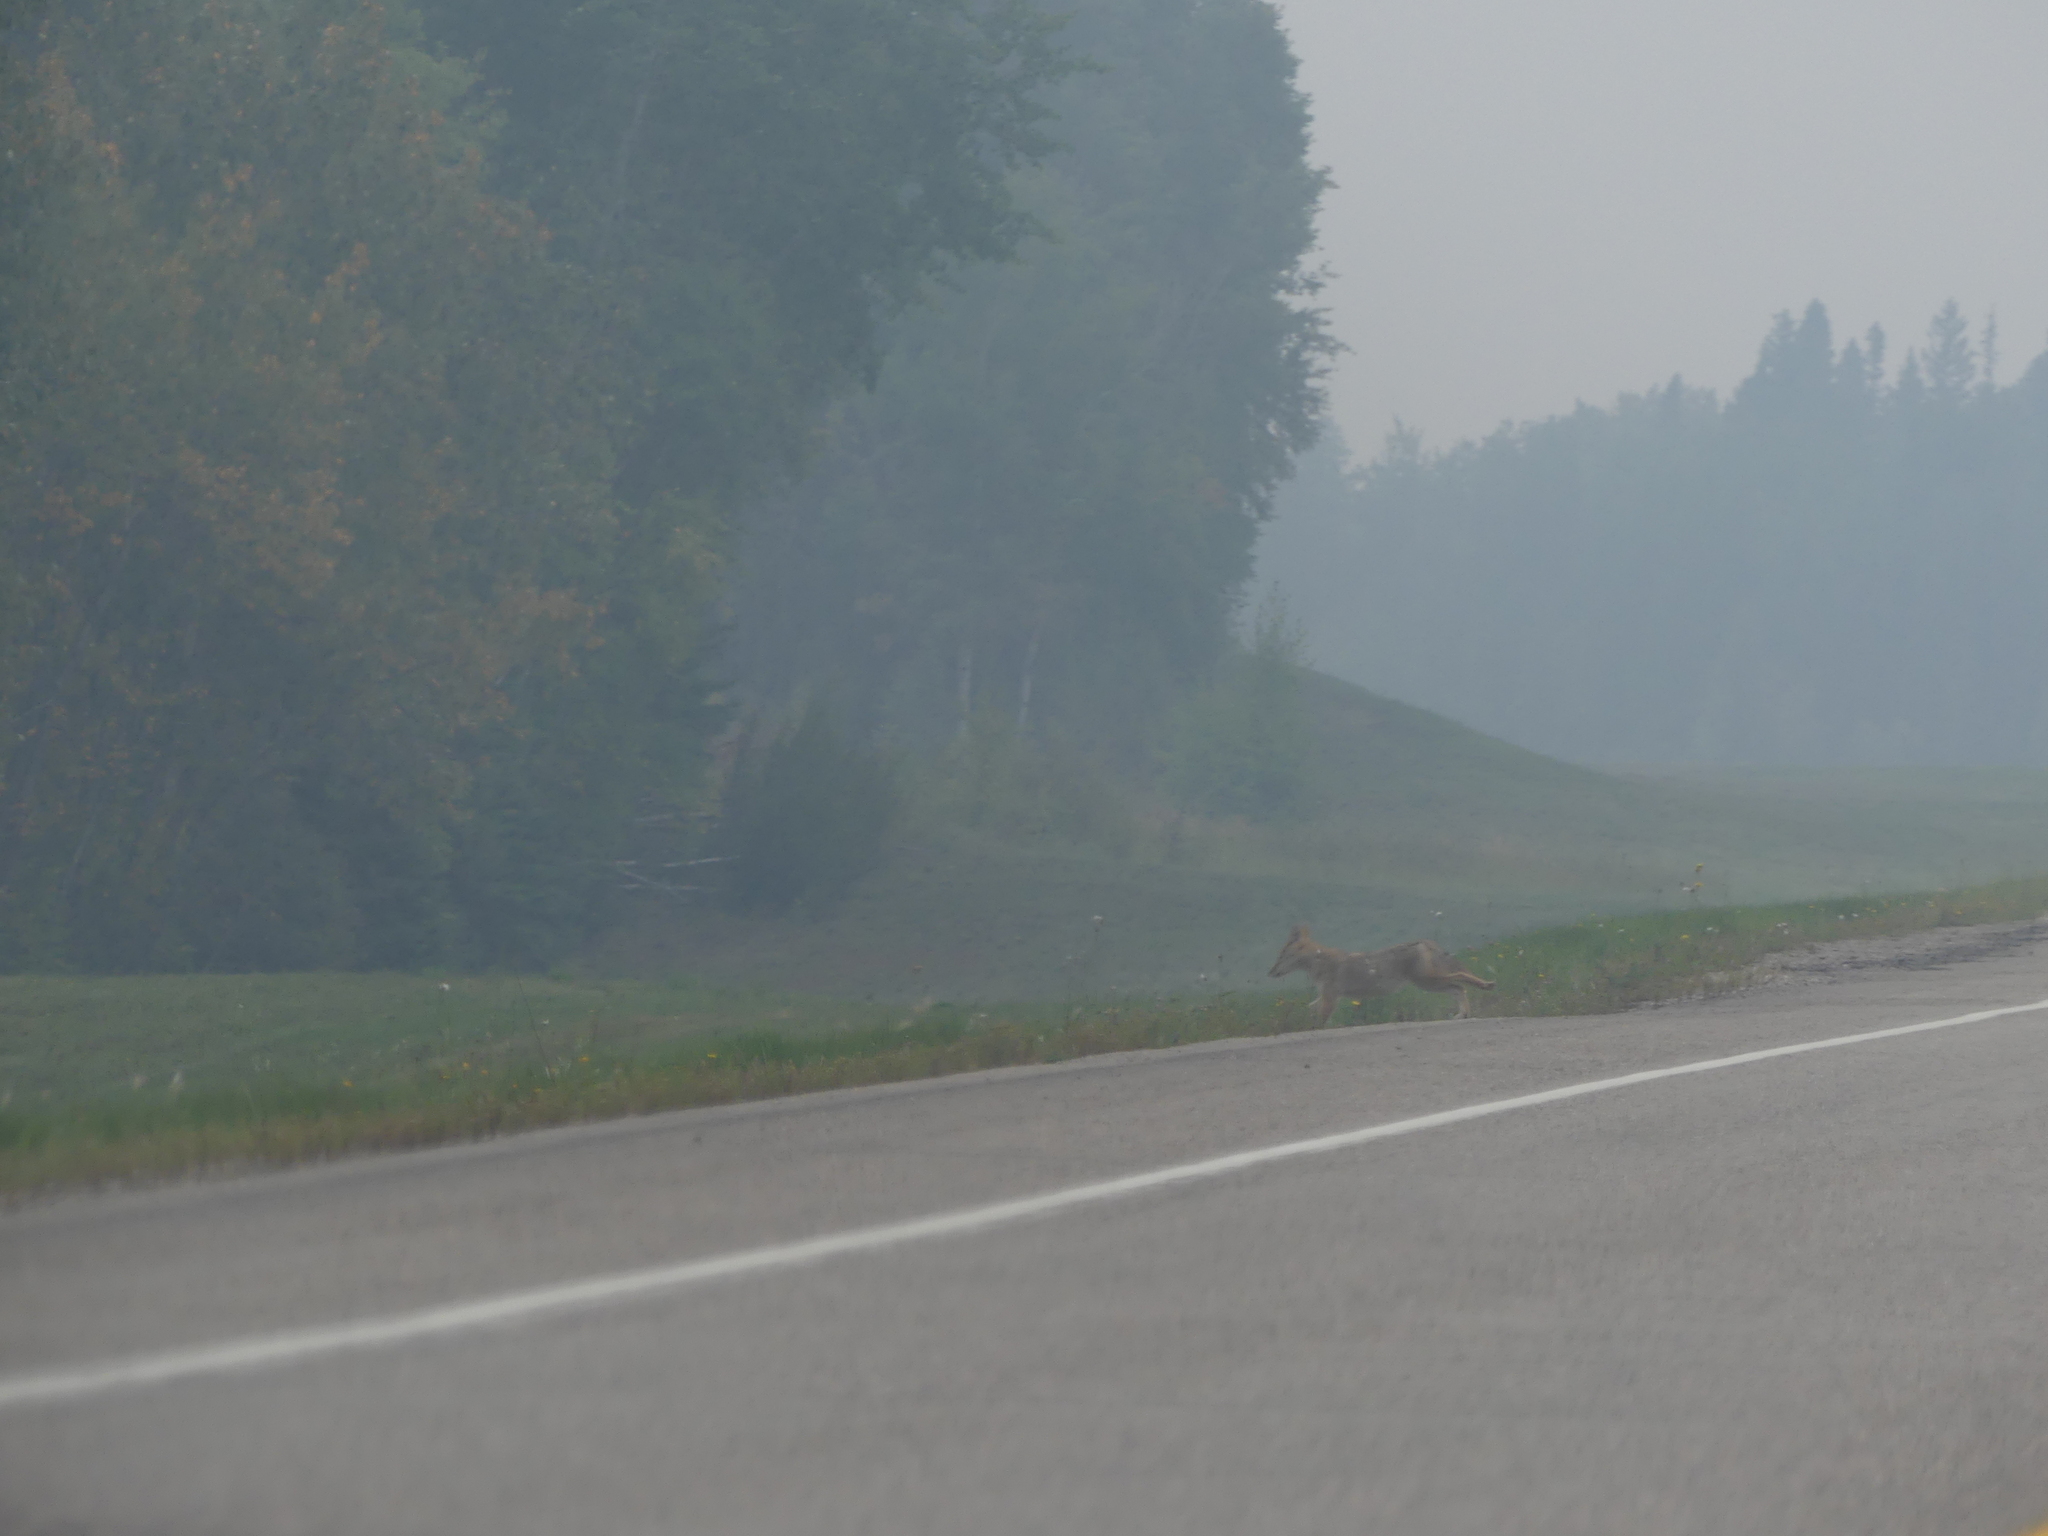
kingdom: Animalia
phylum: Chordata
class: Mammalia
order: Carnivora
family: Canidae
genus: Canis
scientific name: Canis latrans
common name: Coyote
